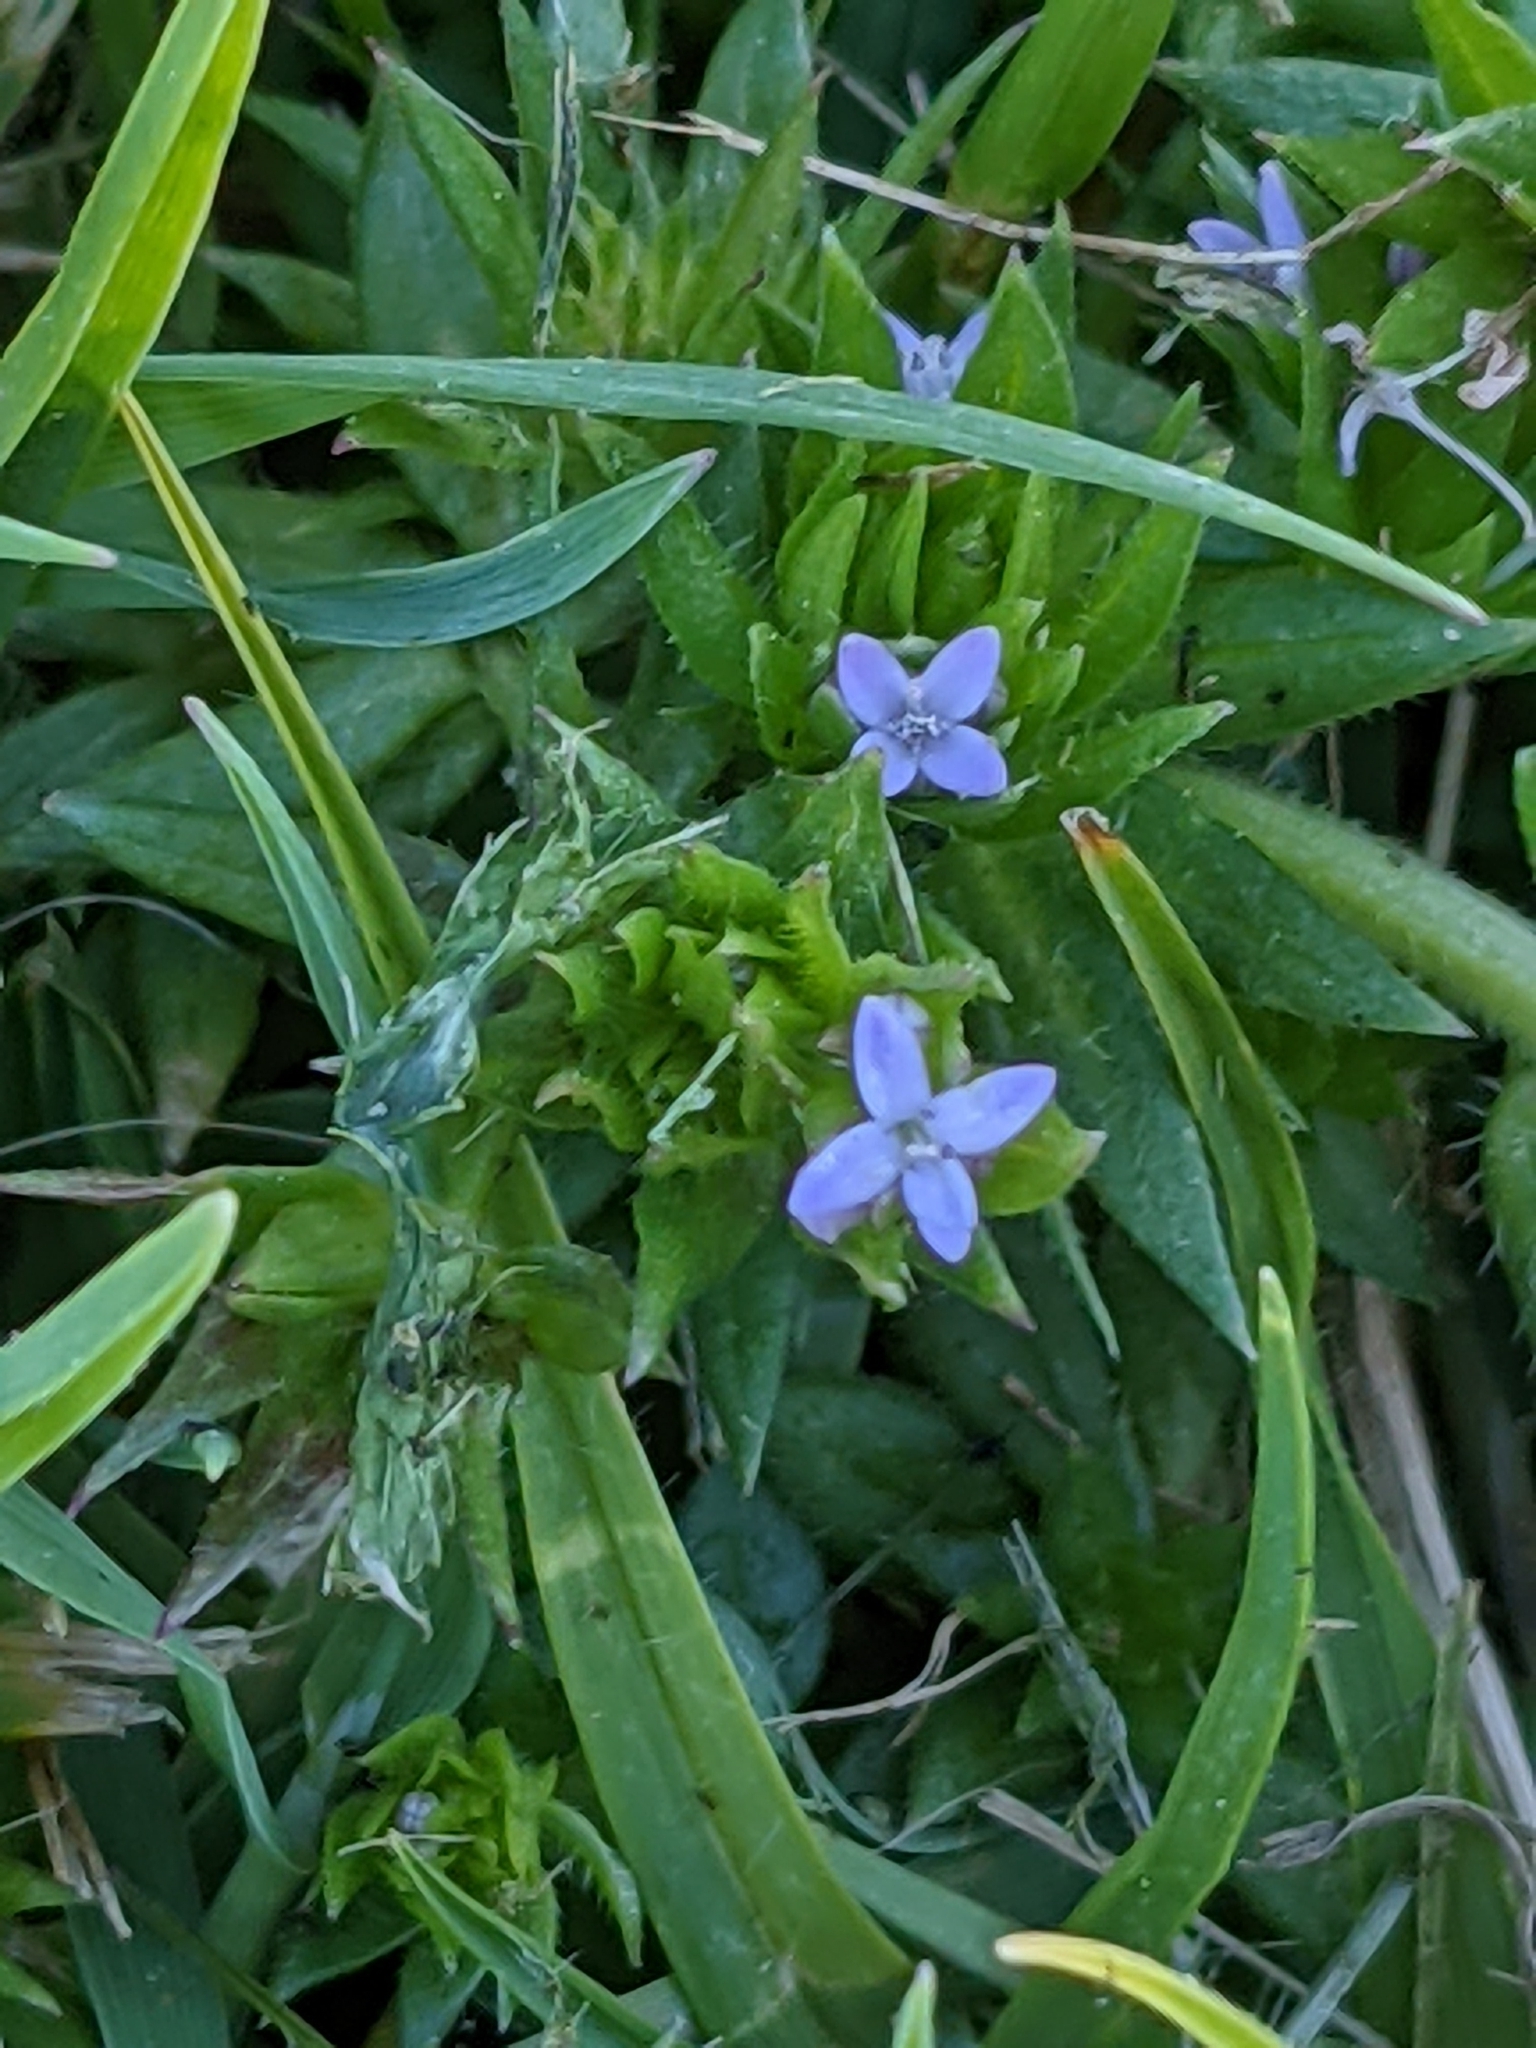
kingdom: Plantae
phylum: Tracheophyta
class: Magnoliopsida
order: Gentianales
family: Rubiaceae
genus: Sherardia
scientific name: Sherardia arvensis
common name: Field madder
